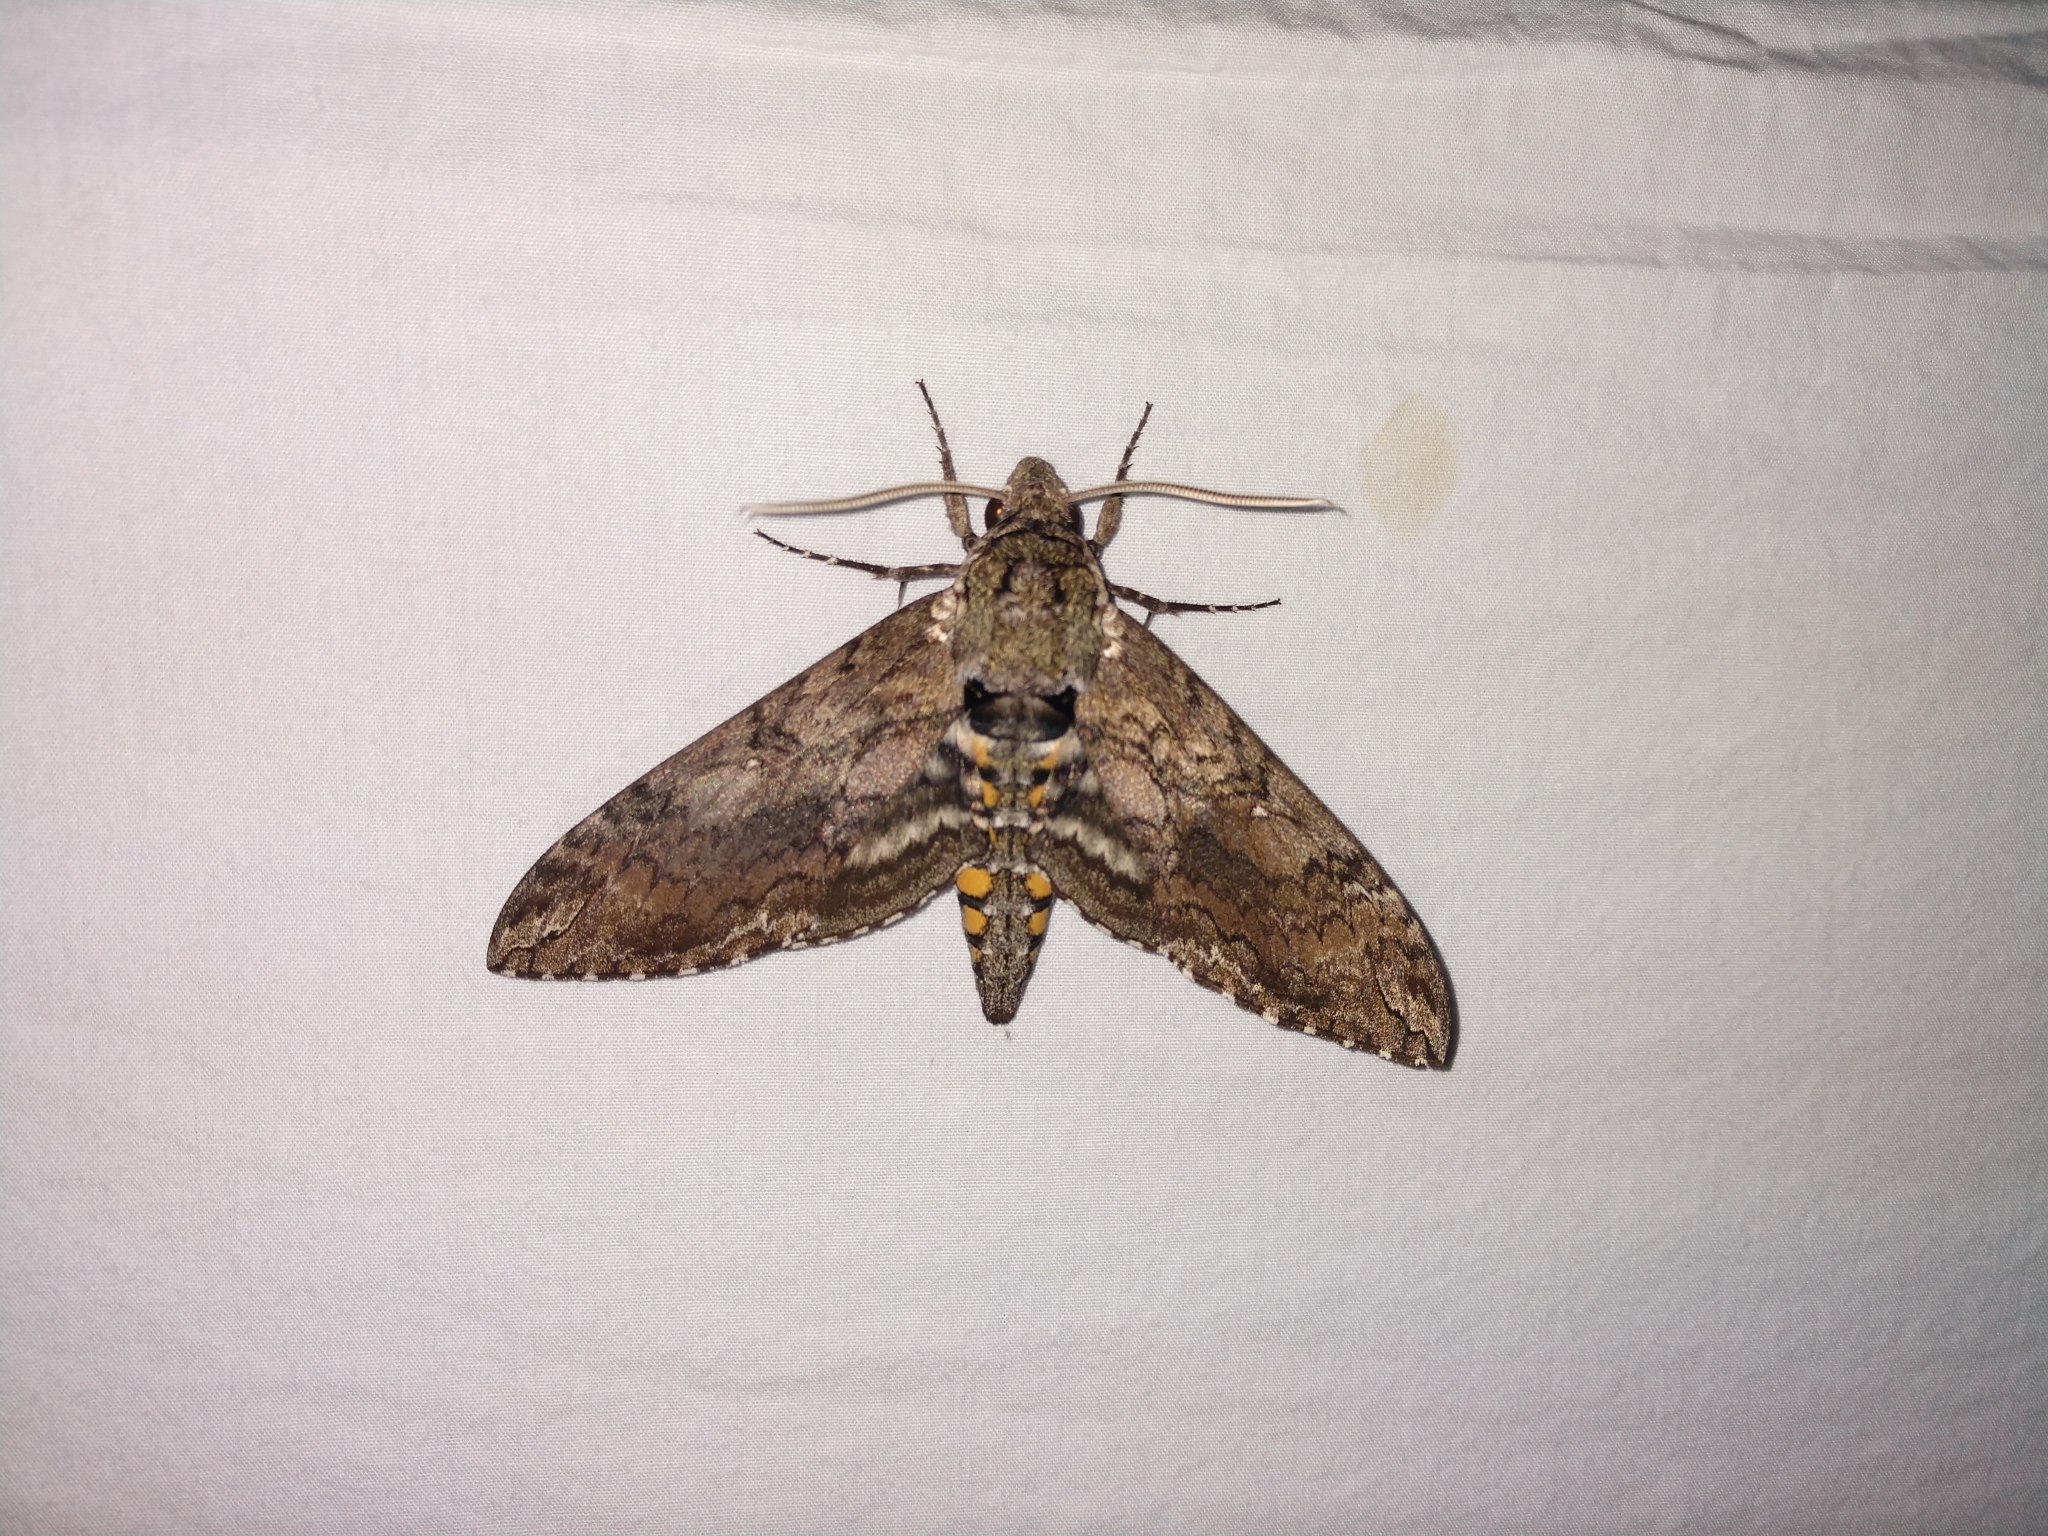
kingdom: Animalia
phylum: Arthropoda
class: Insecta
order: Lepidoptera
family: Sphingidae
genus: Manduca
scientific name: Manduca sexta
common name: Carolina sphinx
